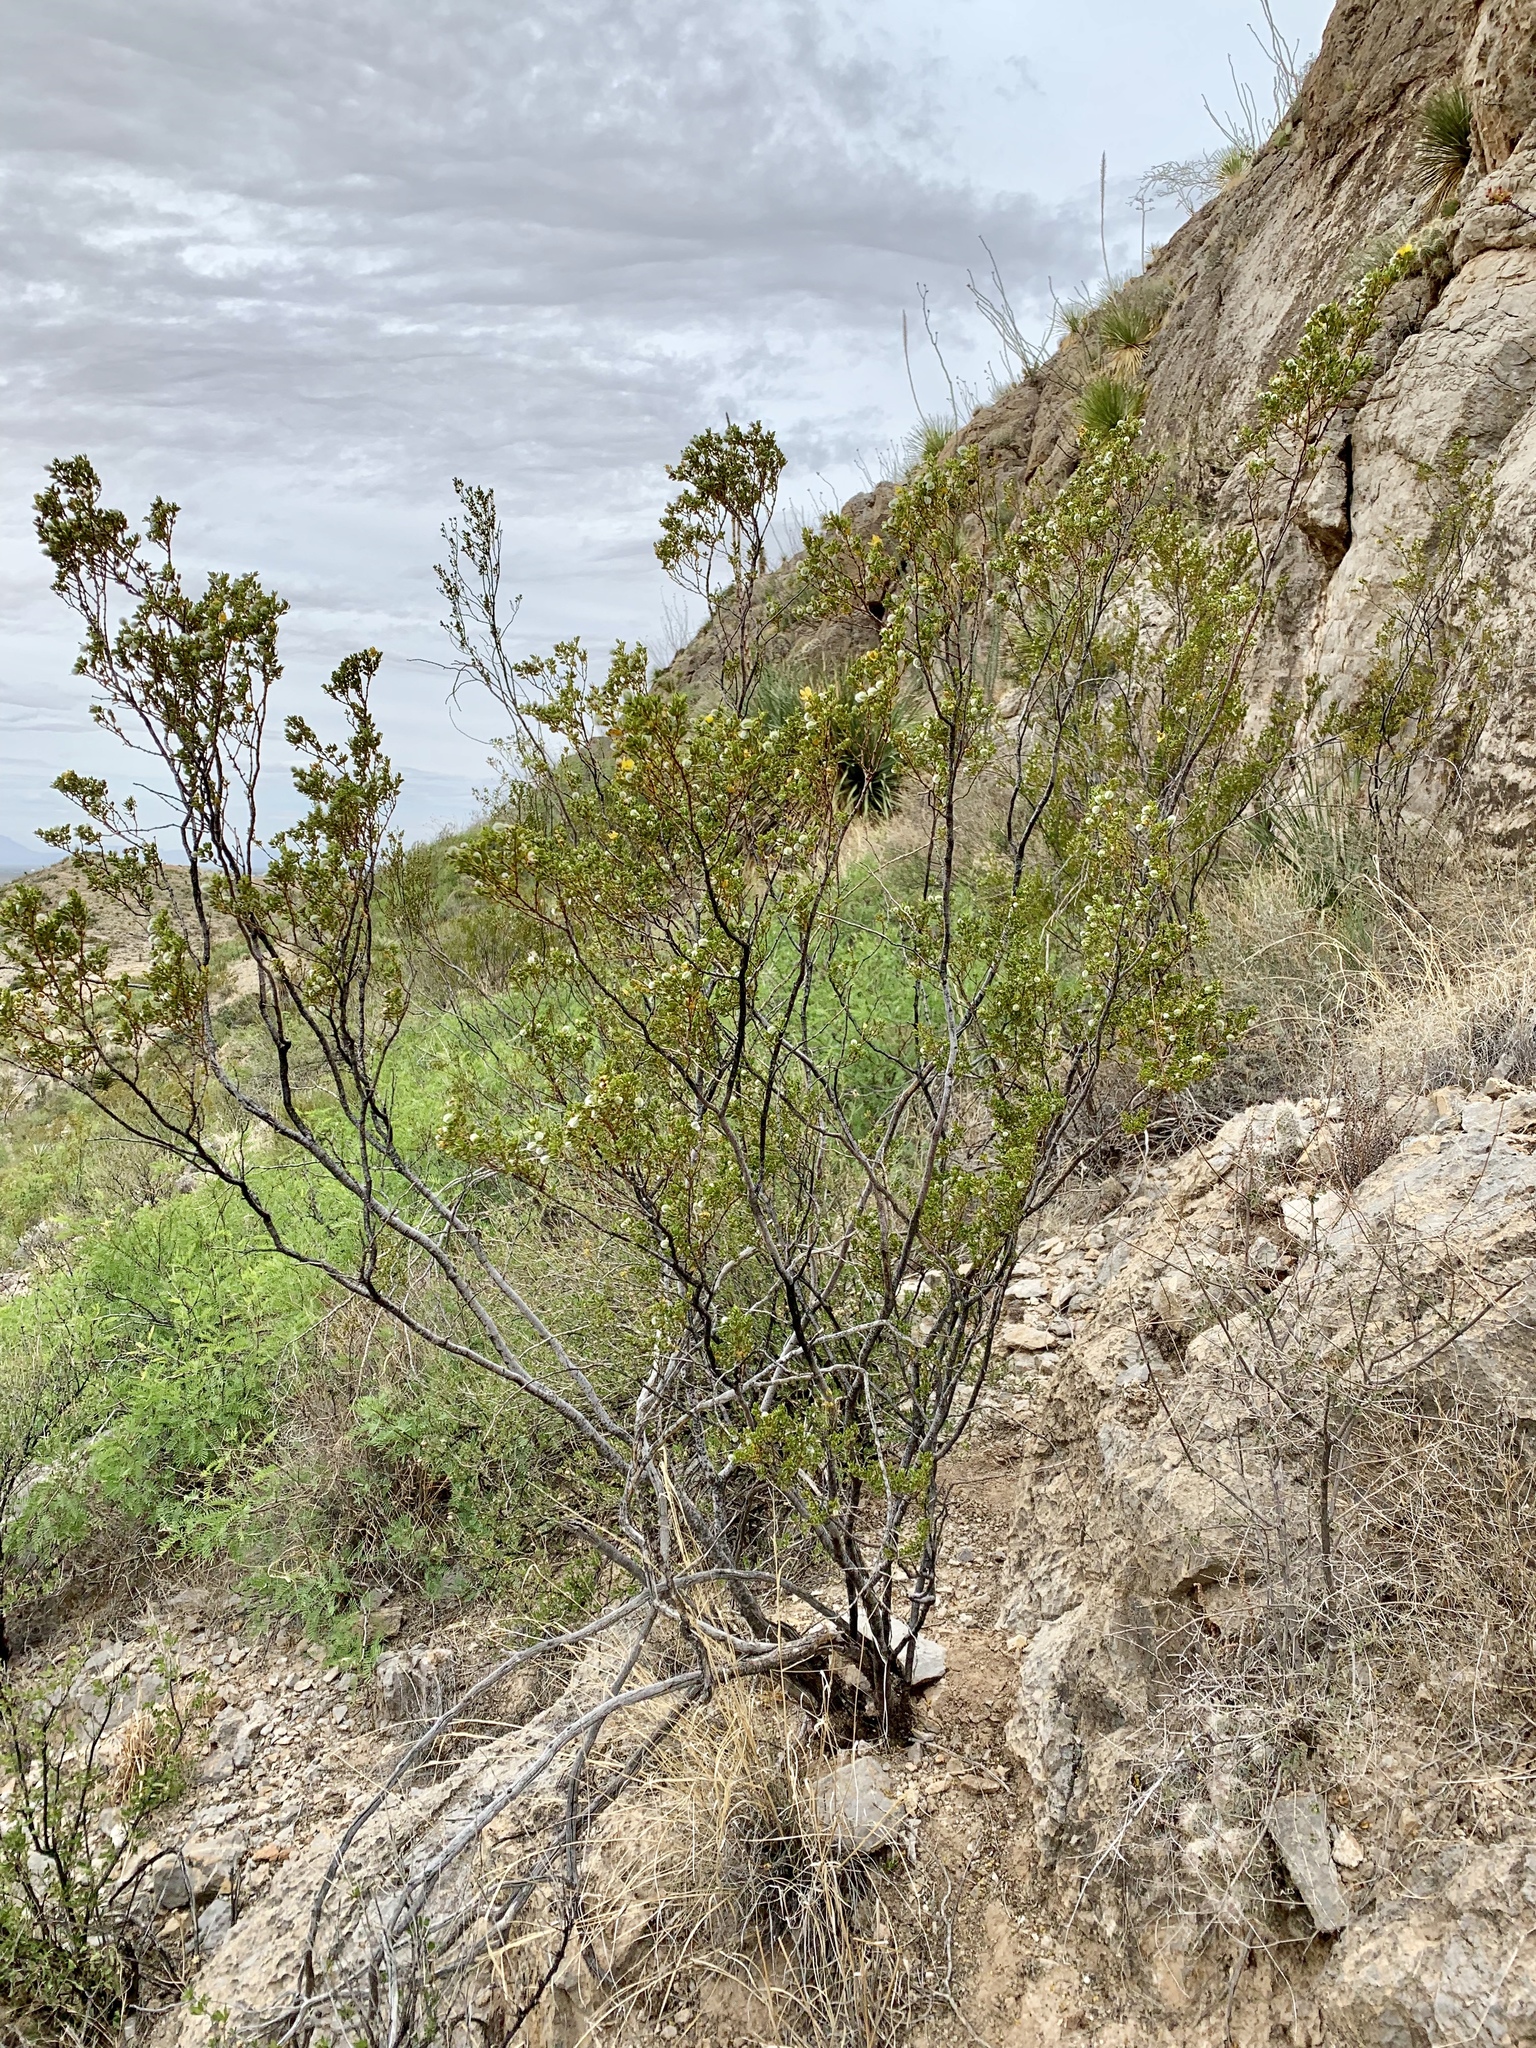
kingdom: Plantae
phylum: Tracheophyta
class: Magnoliopsida
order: Zygophyllales
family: Zygophyllaceae
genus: Larrea
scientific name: Larrea tridentata
